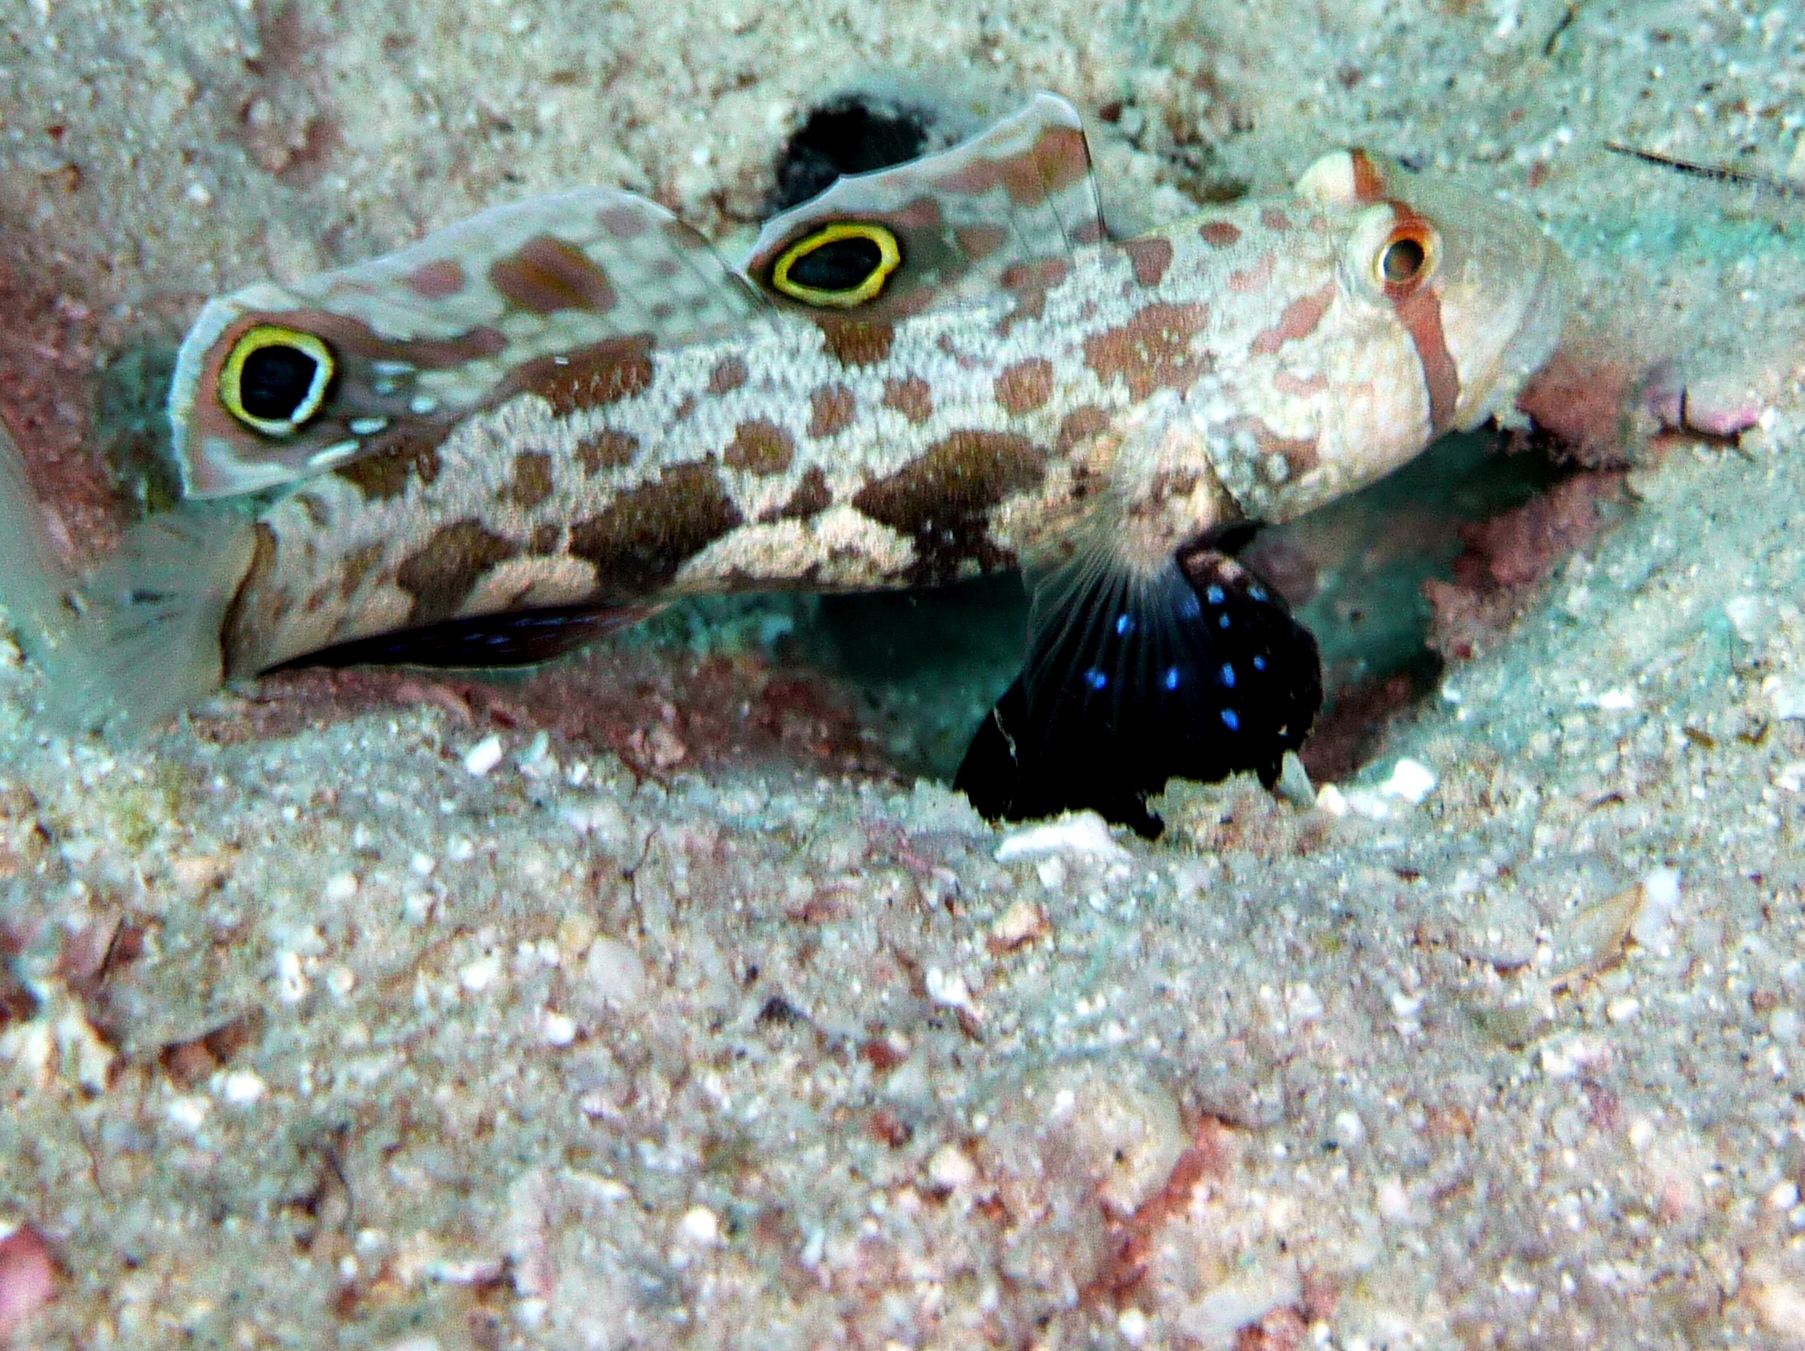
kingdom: Animalia
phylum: Chordata
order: Perciformes
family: Gobiidae
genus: Signigobius
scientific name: Signigobius biocellatus
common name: Crab-eye goby
